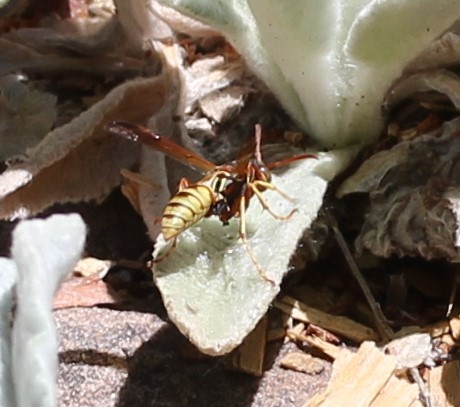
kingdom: Animalia
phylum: Arthropoda
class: Insecta
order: Hymenoptera
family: Eumenidae
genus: Polistes
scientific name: Polistes aurifer
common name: Paper wasp
